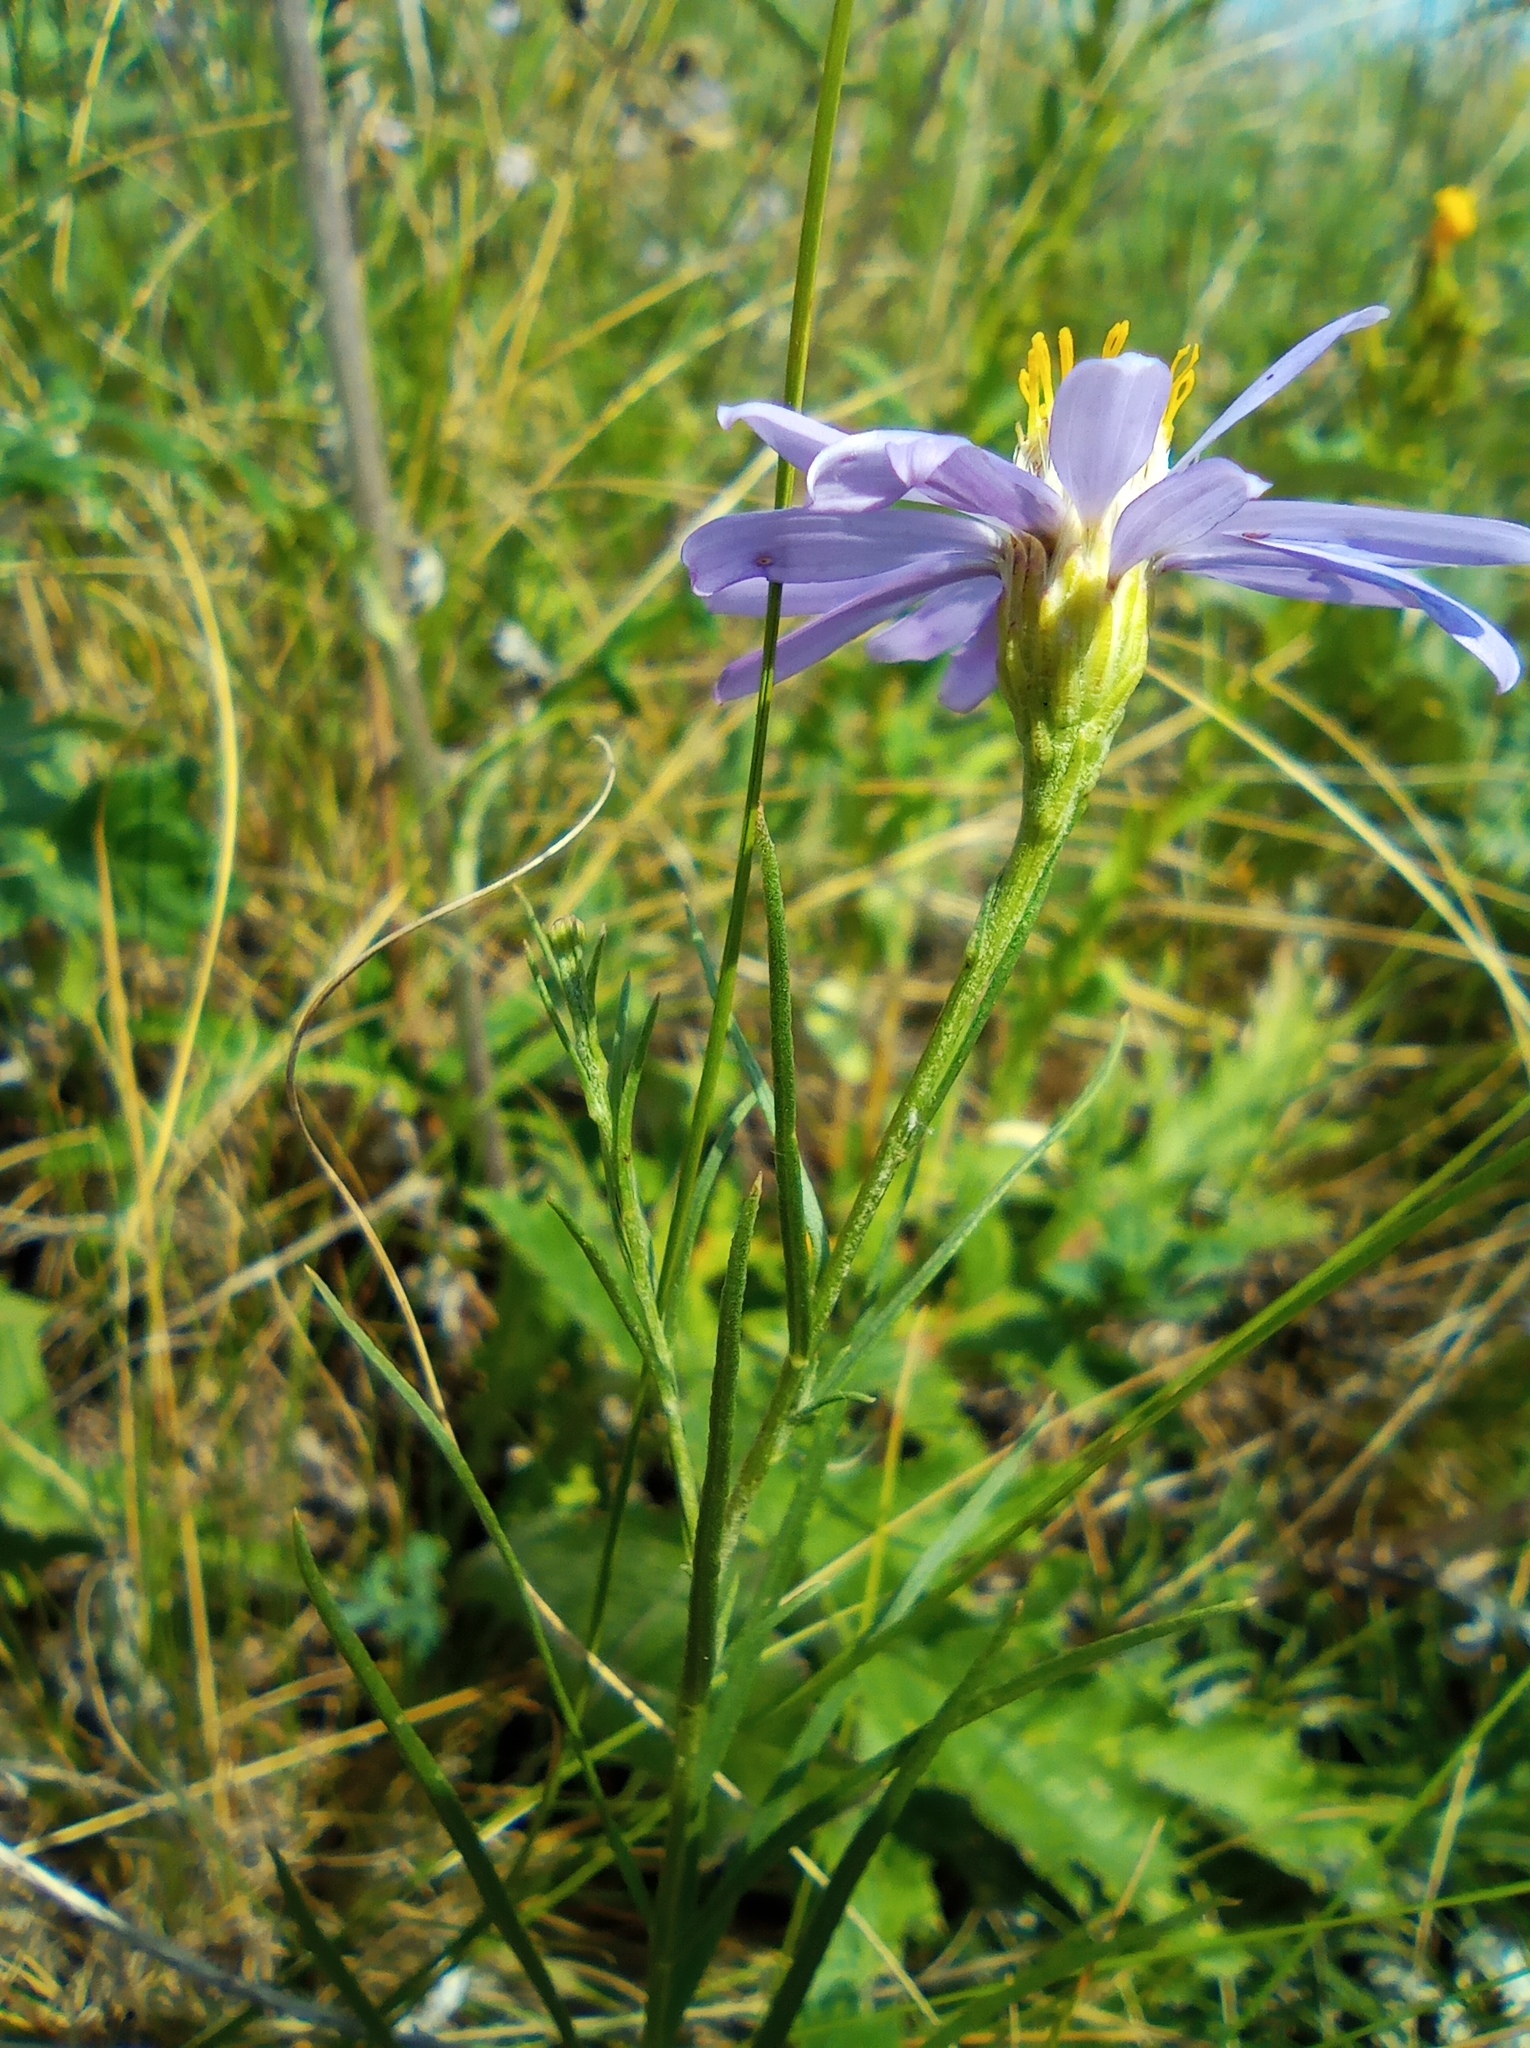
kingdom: Plantae
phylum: Tracheophyta
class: Magnoliopsida
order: Asterales
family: Asteraceae
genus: Galatella
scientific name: Galatella angustissima
